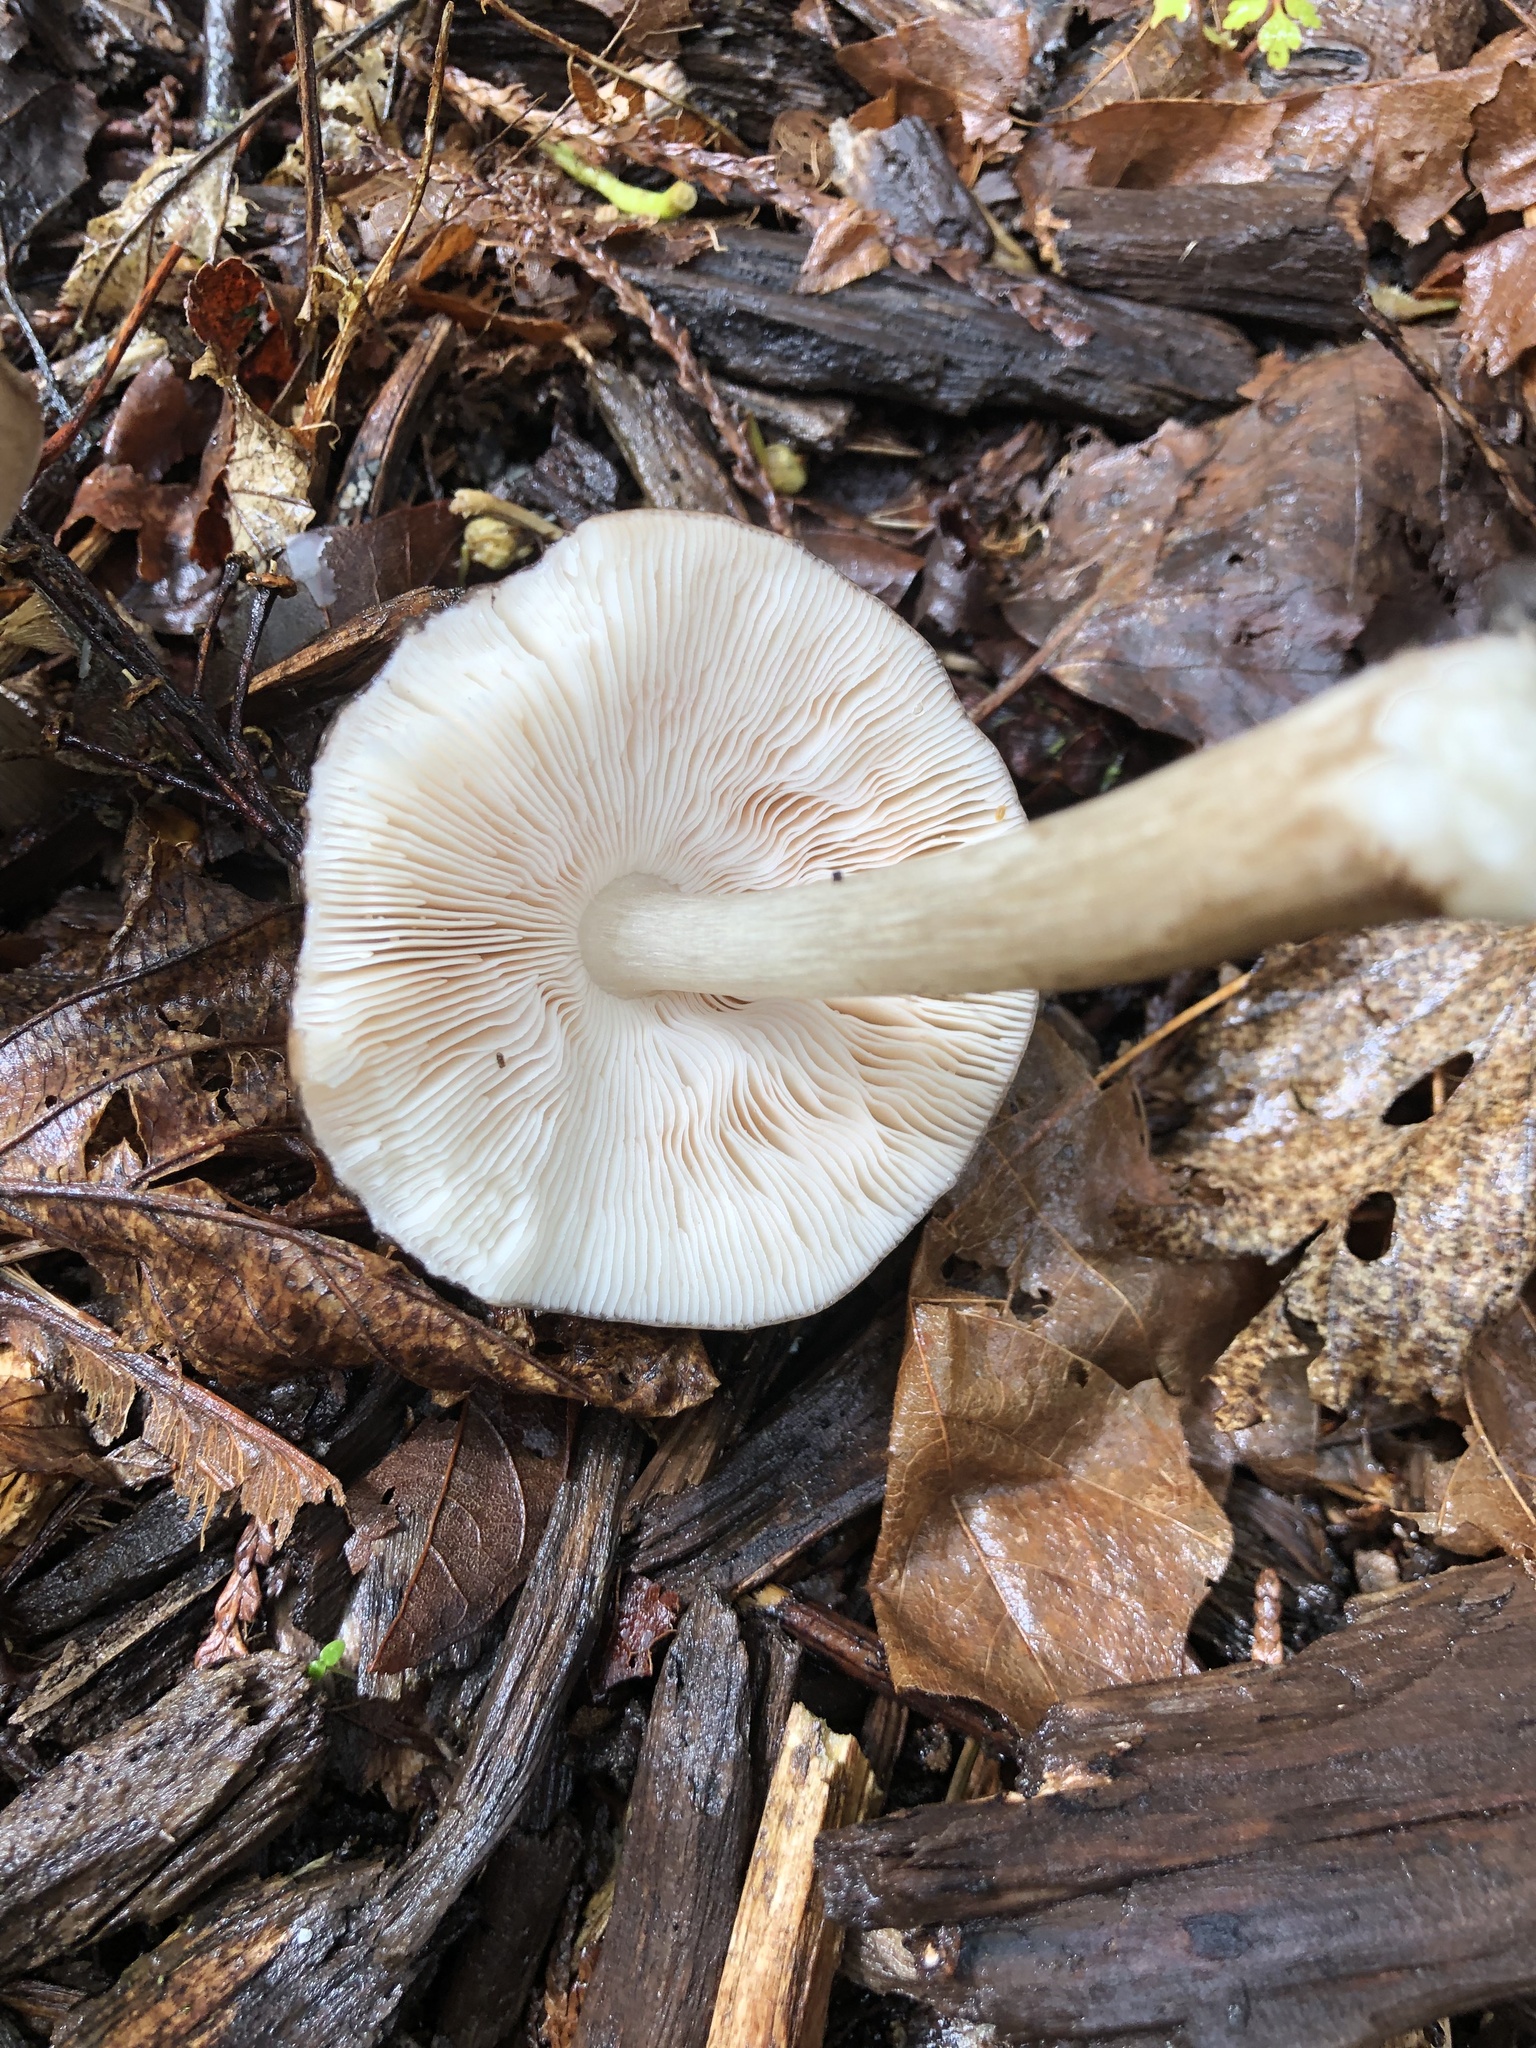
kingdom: Fungi
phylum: Basidiomycota
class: Agaricomycetes
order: Agaricales
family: Pluteaceae
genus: Pluteus
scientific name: Pluteus cervinus
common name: Deer shield
